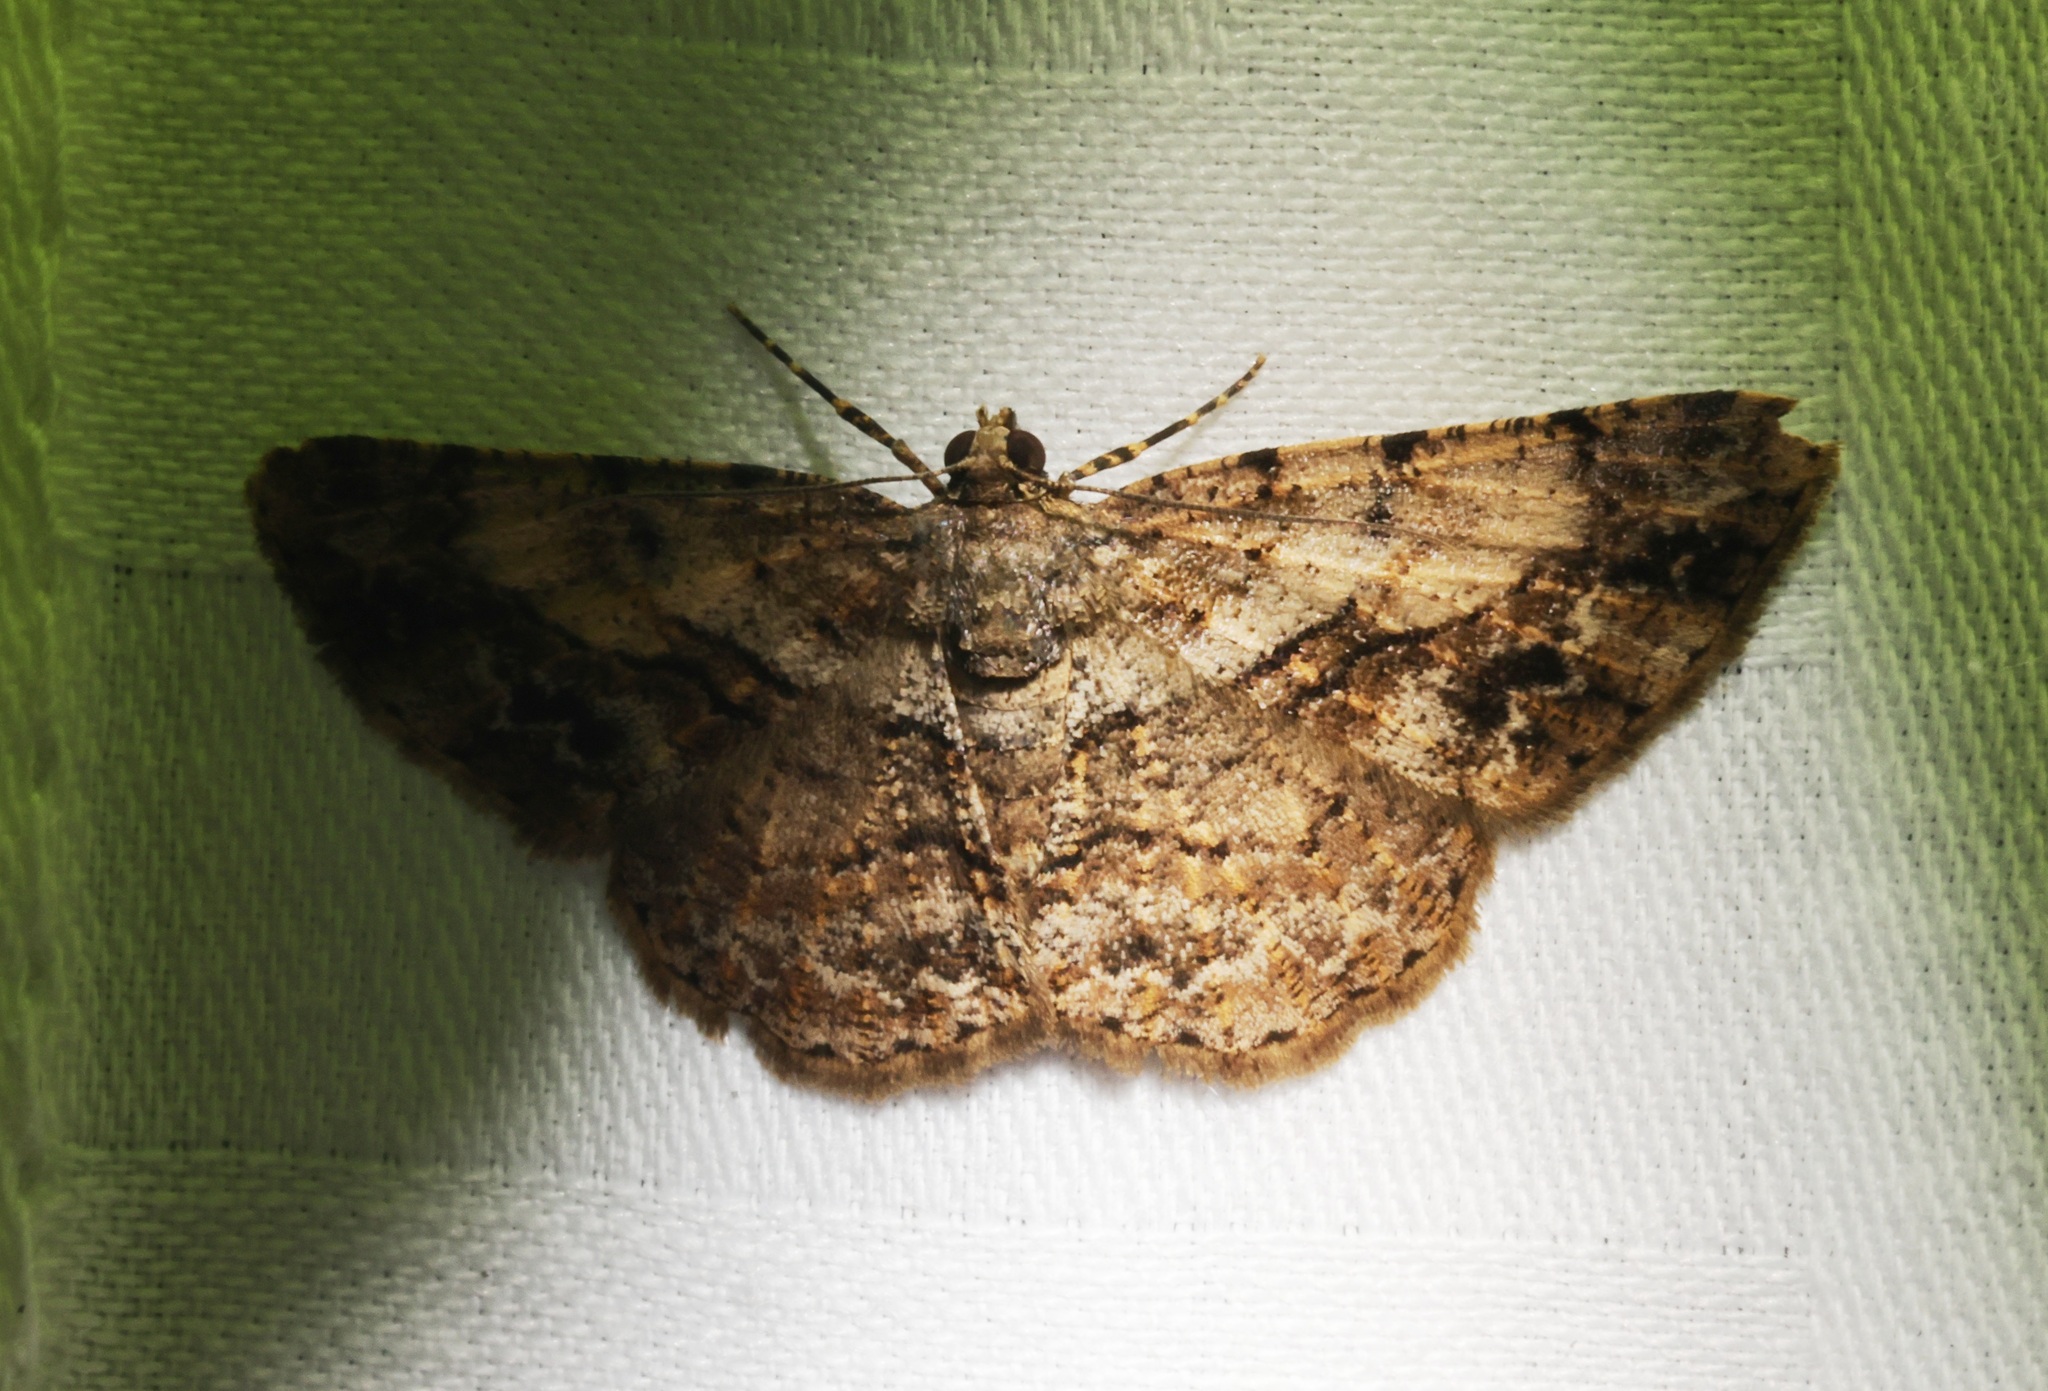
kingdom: Animalia
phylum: Arthropoda
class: Insecta
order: Lepidoptera
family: Geometridae
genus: Psilalcis
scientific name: Psilalcis galsworthyi
